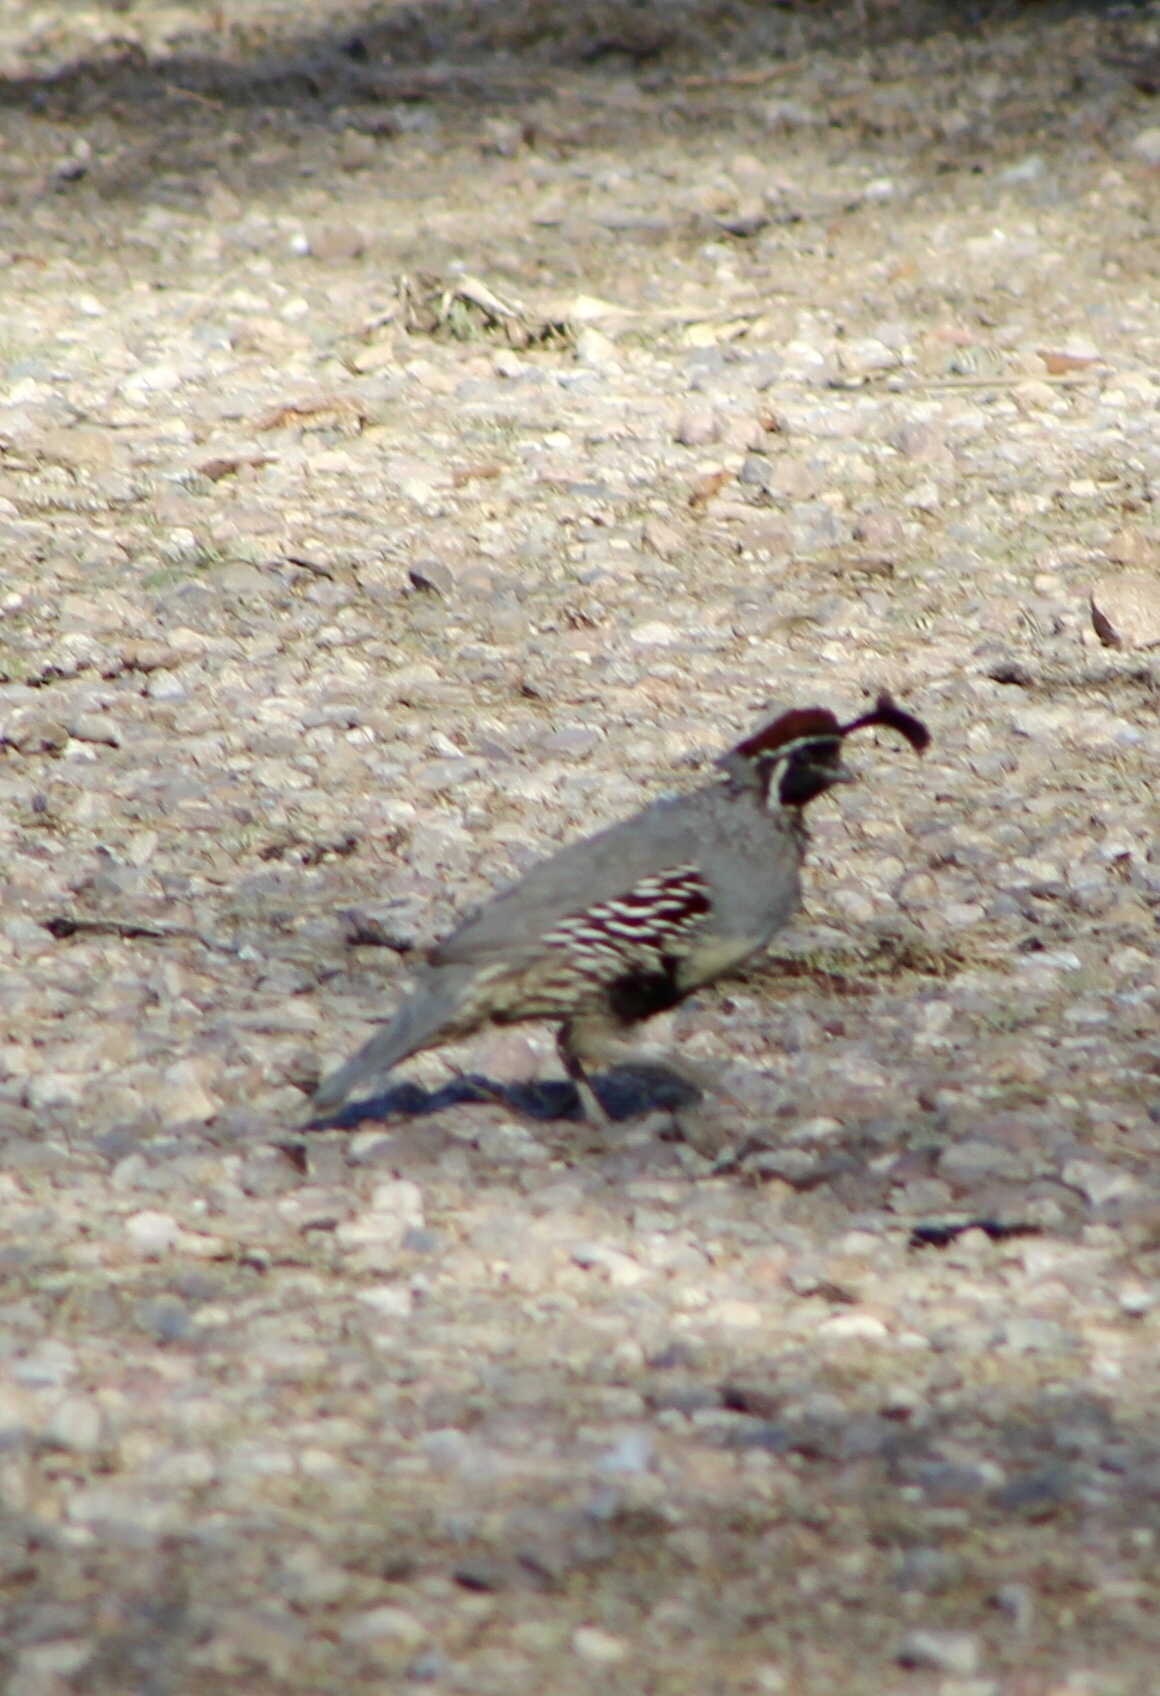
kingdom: Animalia
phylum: Chordata
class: Aves
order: Galliformes
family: Odontophoridae
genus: Callipepla
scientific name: Callipepla gambelii
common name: Gambel's quail
